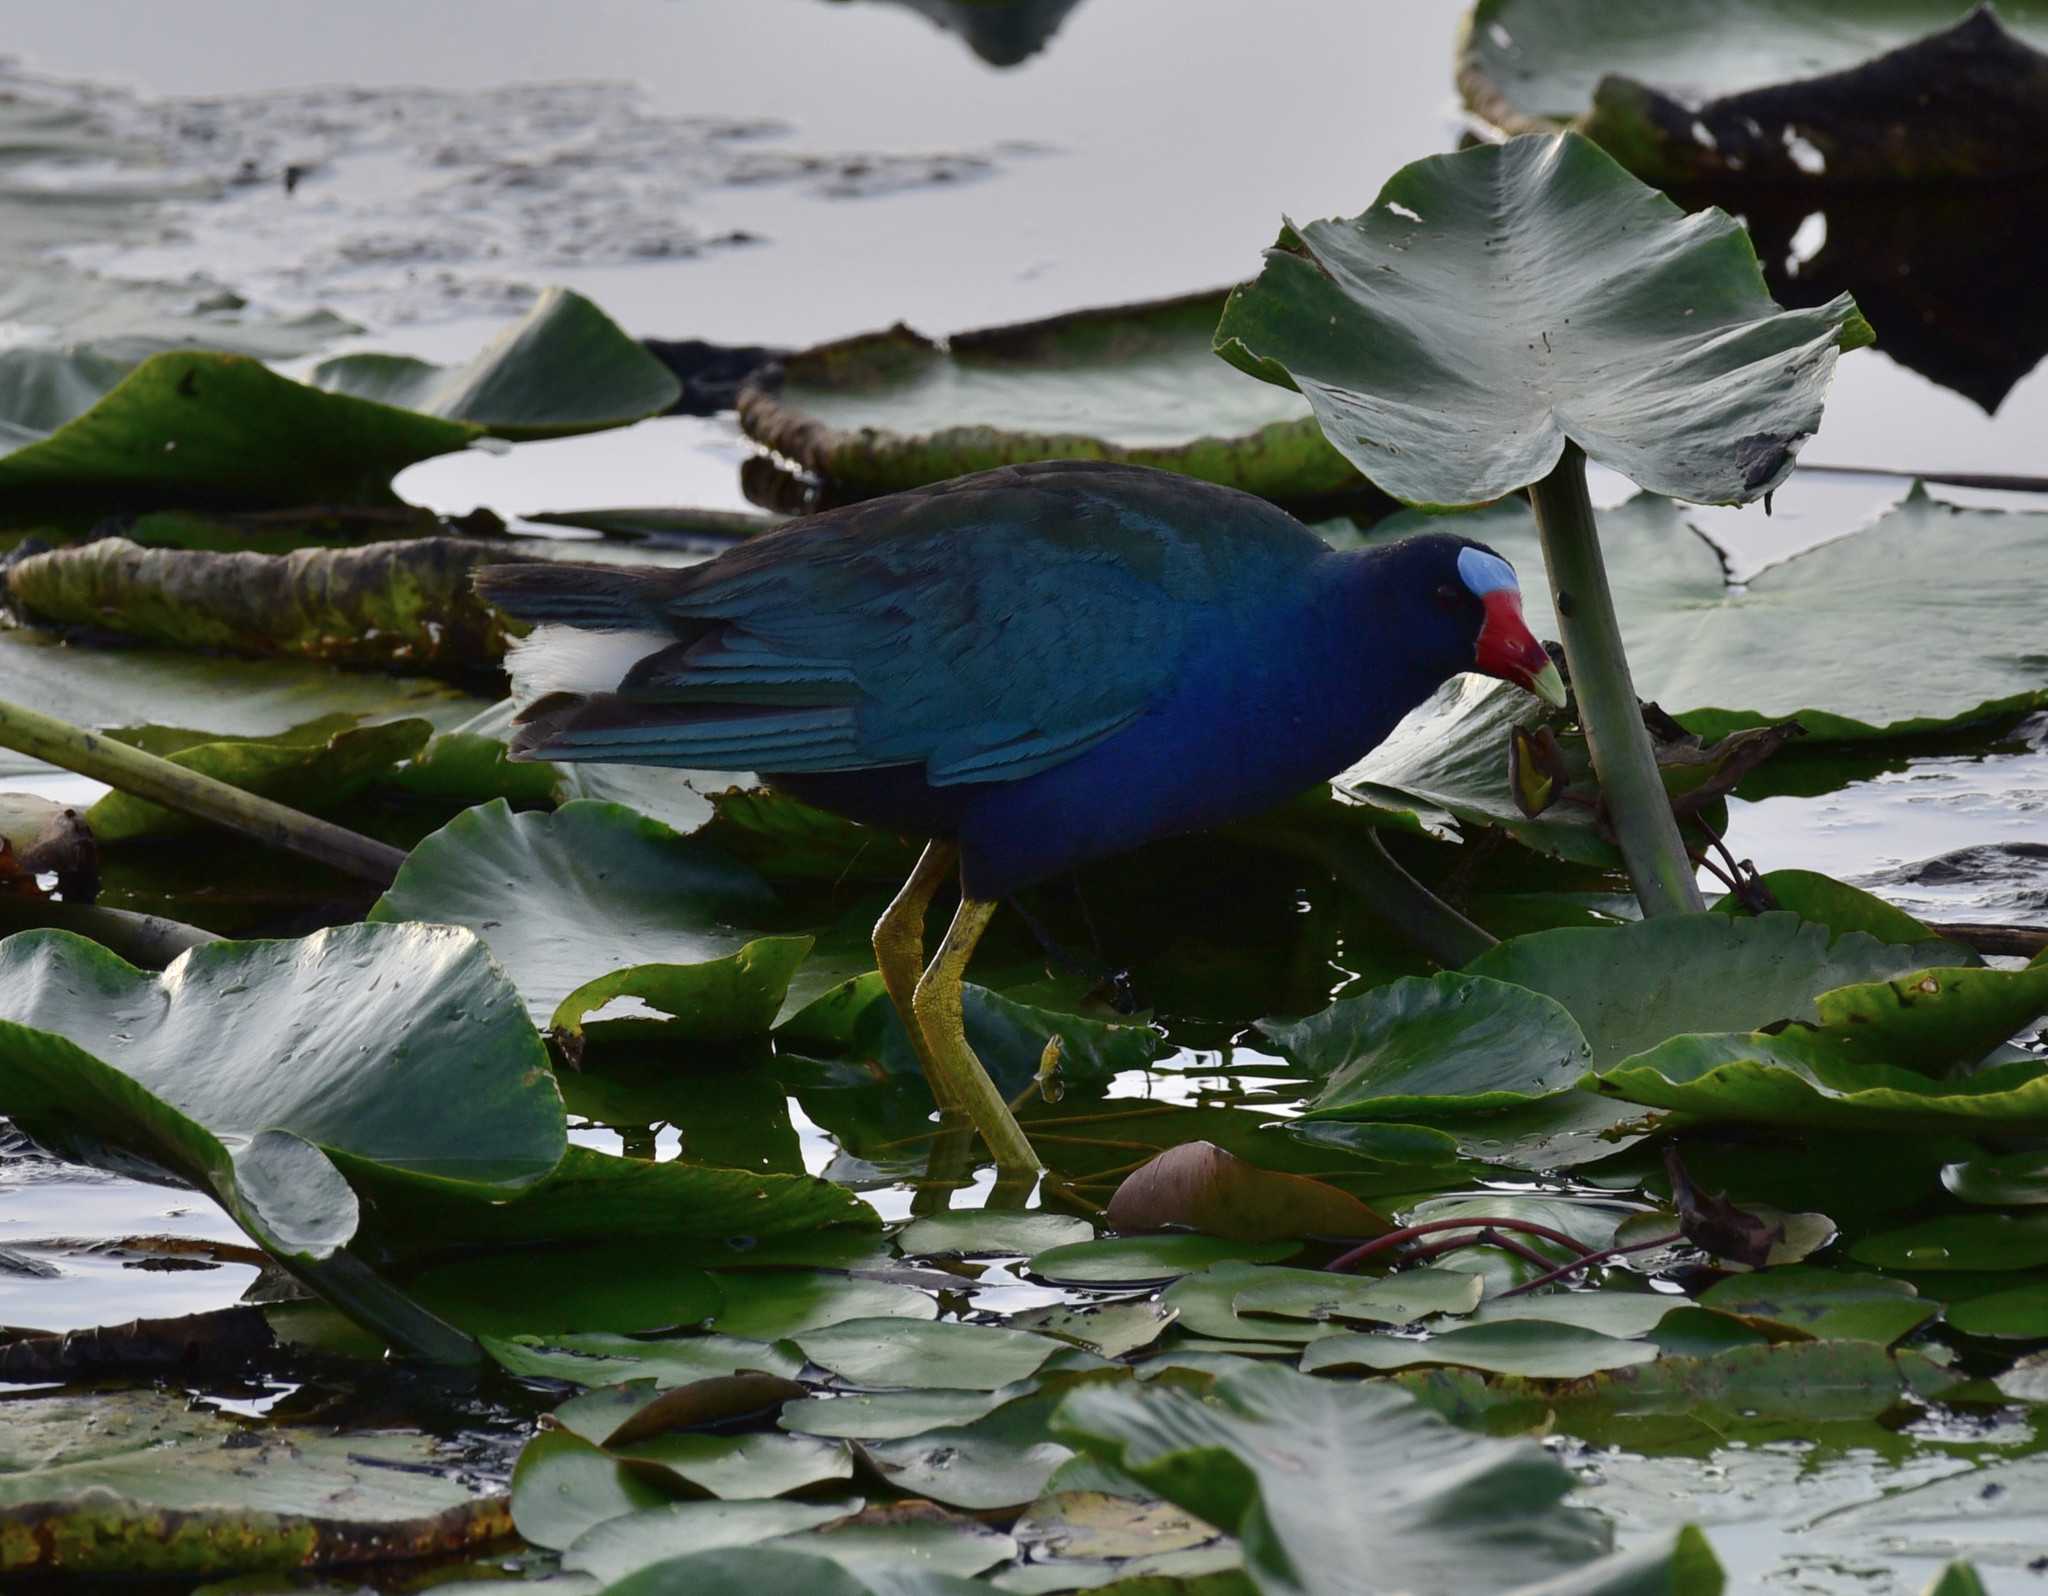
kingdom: Animalia
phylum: Chordata
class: Aves
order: Gruiformes
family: Rallidae
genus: Porphyrio
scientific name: Porphyrio martinica
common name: Purple gallinule
